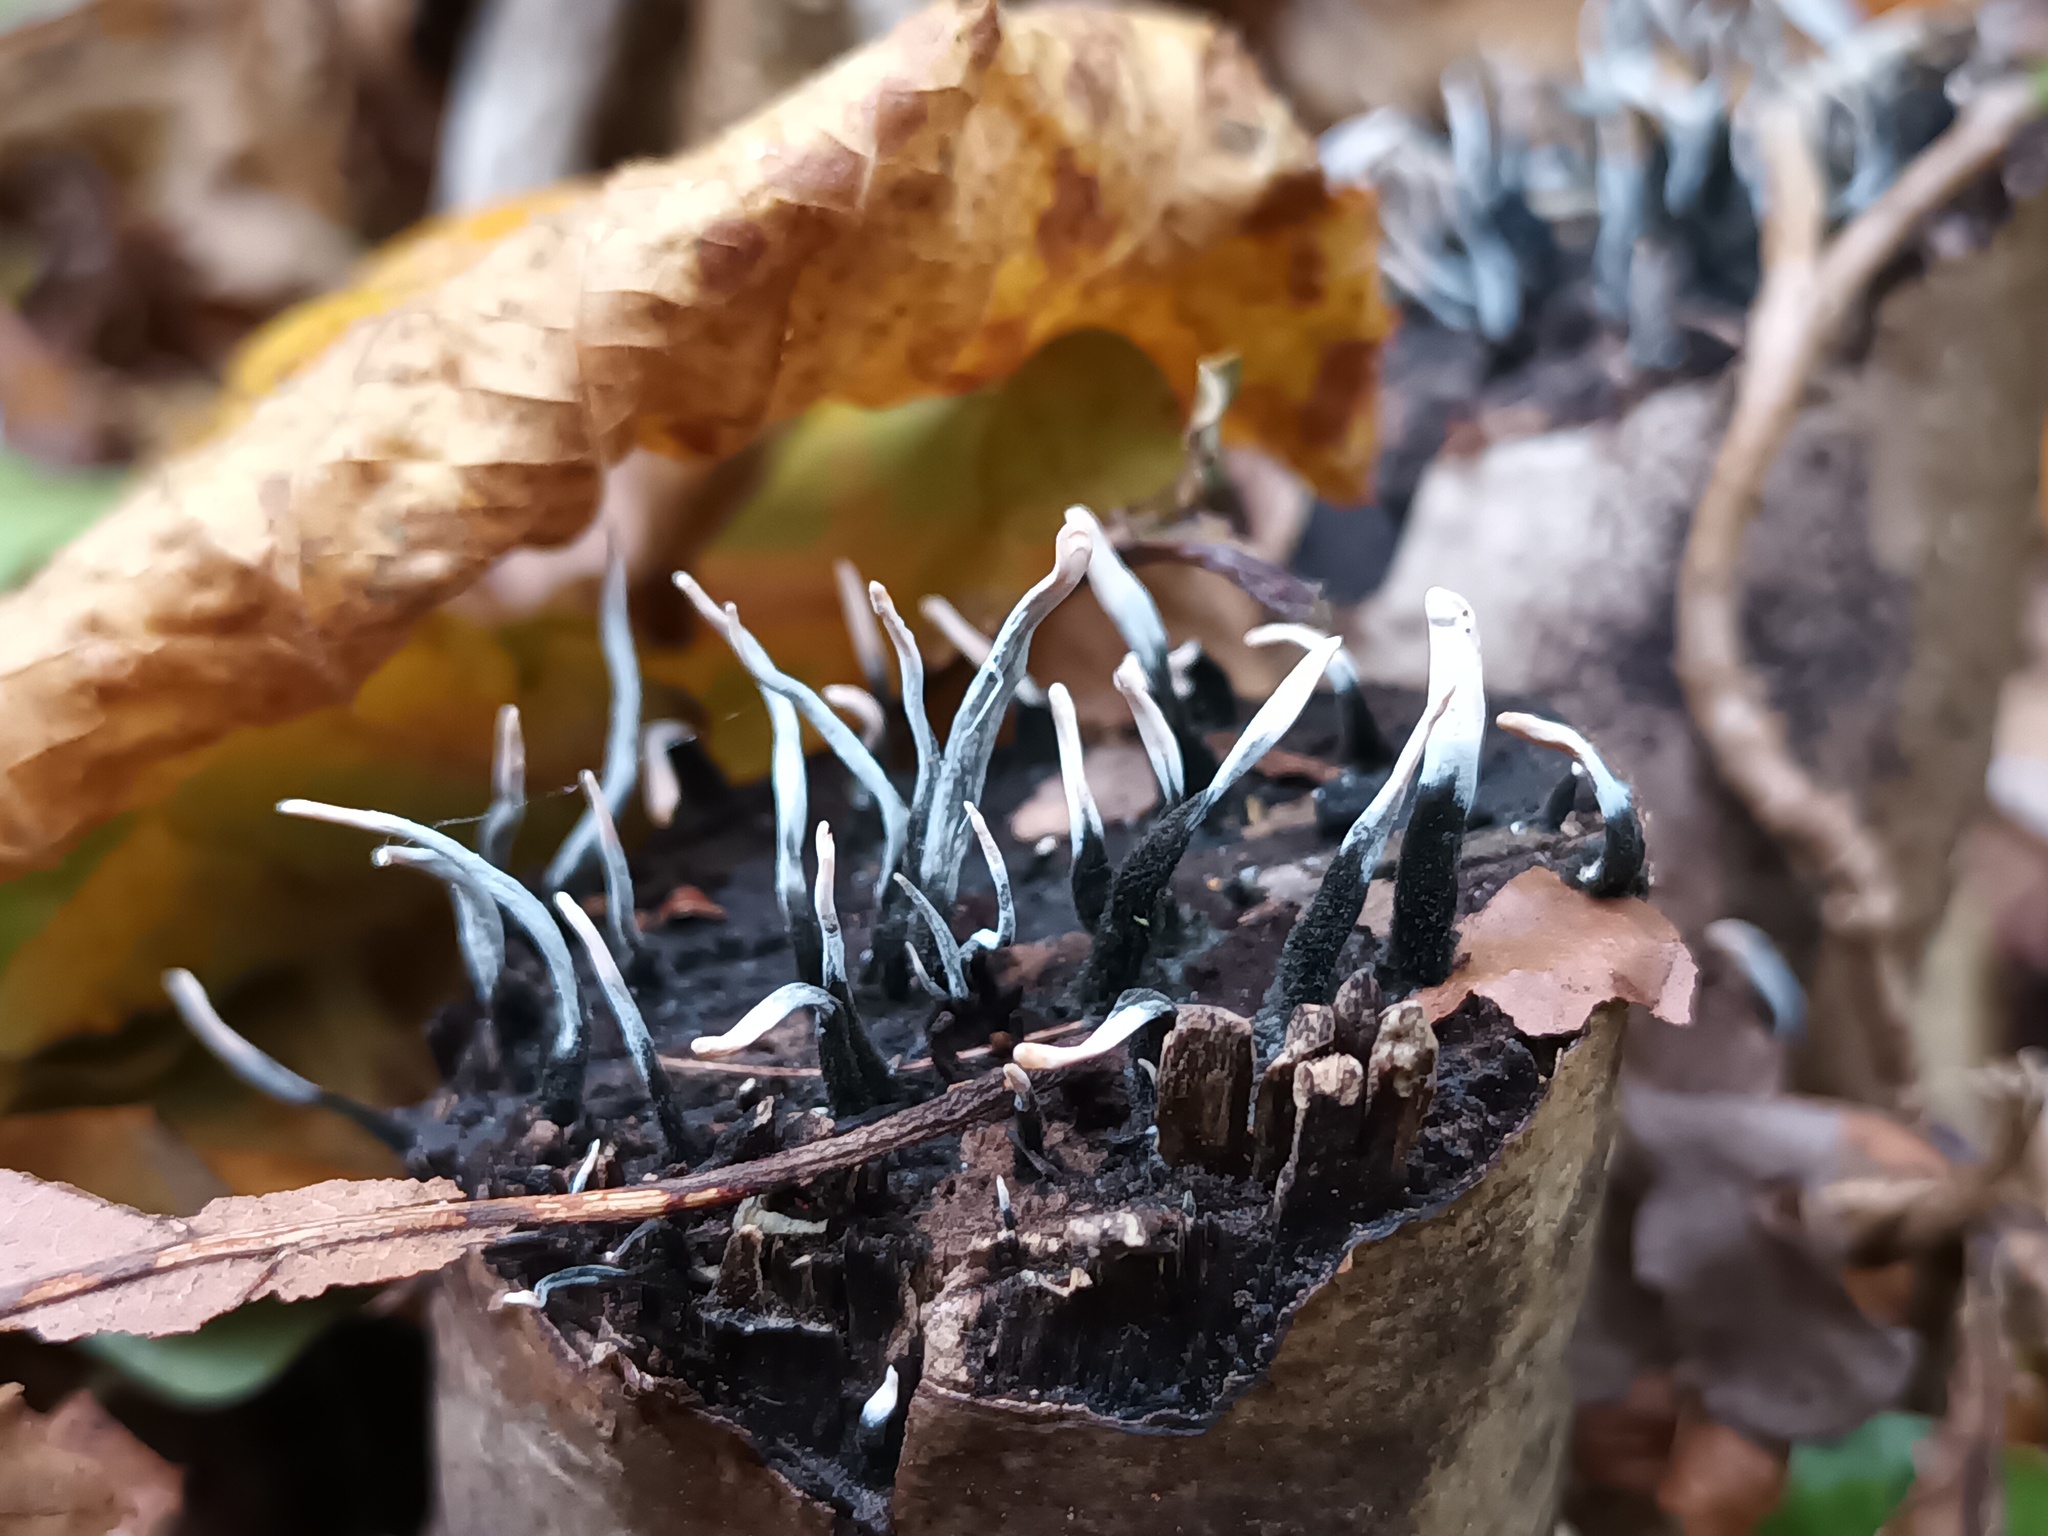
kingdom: Fungi
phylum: Ascomycota
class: Sordariomycetes
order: Xylariales
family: Xylariaceae
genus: Xylaria
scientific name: Xylaria hypoxylon
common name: Candle-snuff fungus
